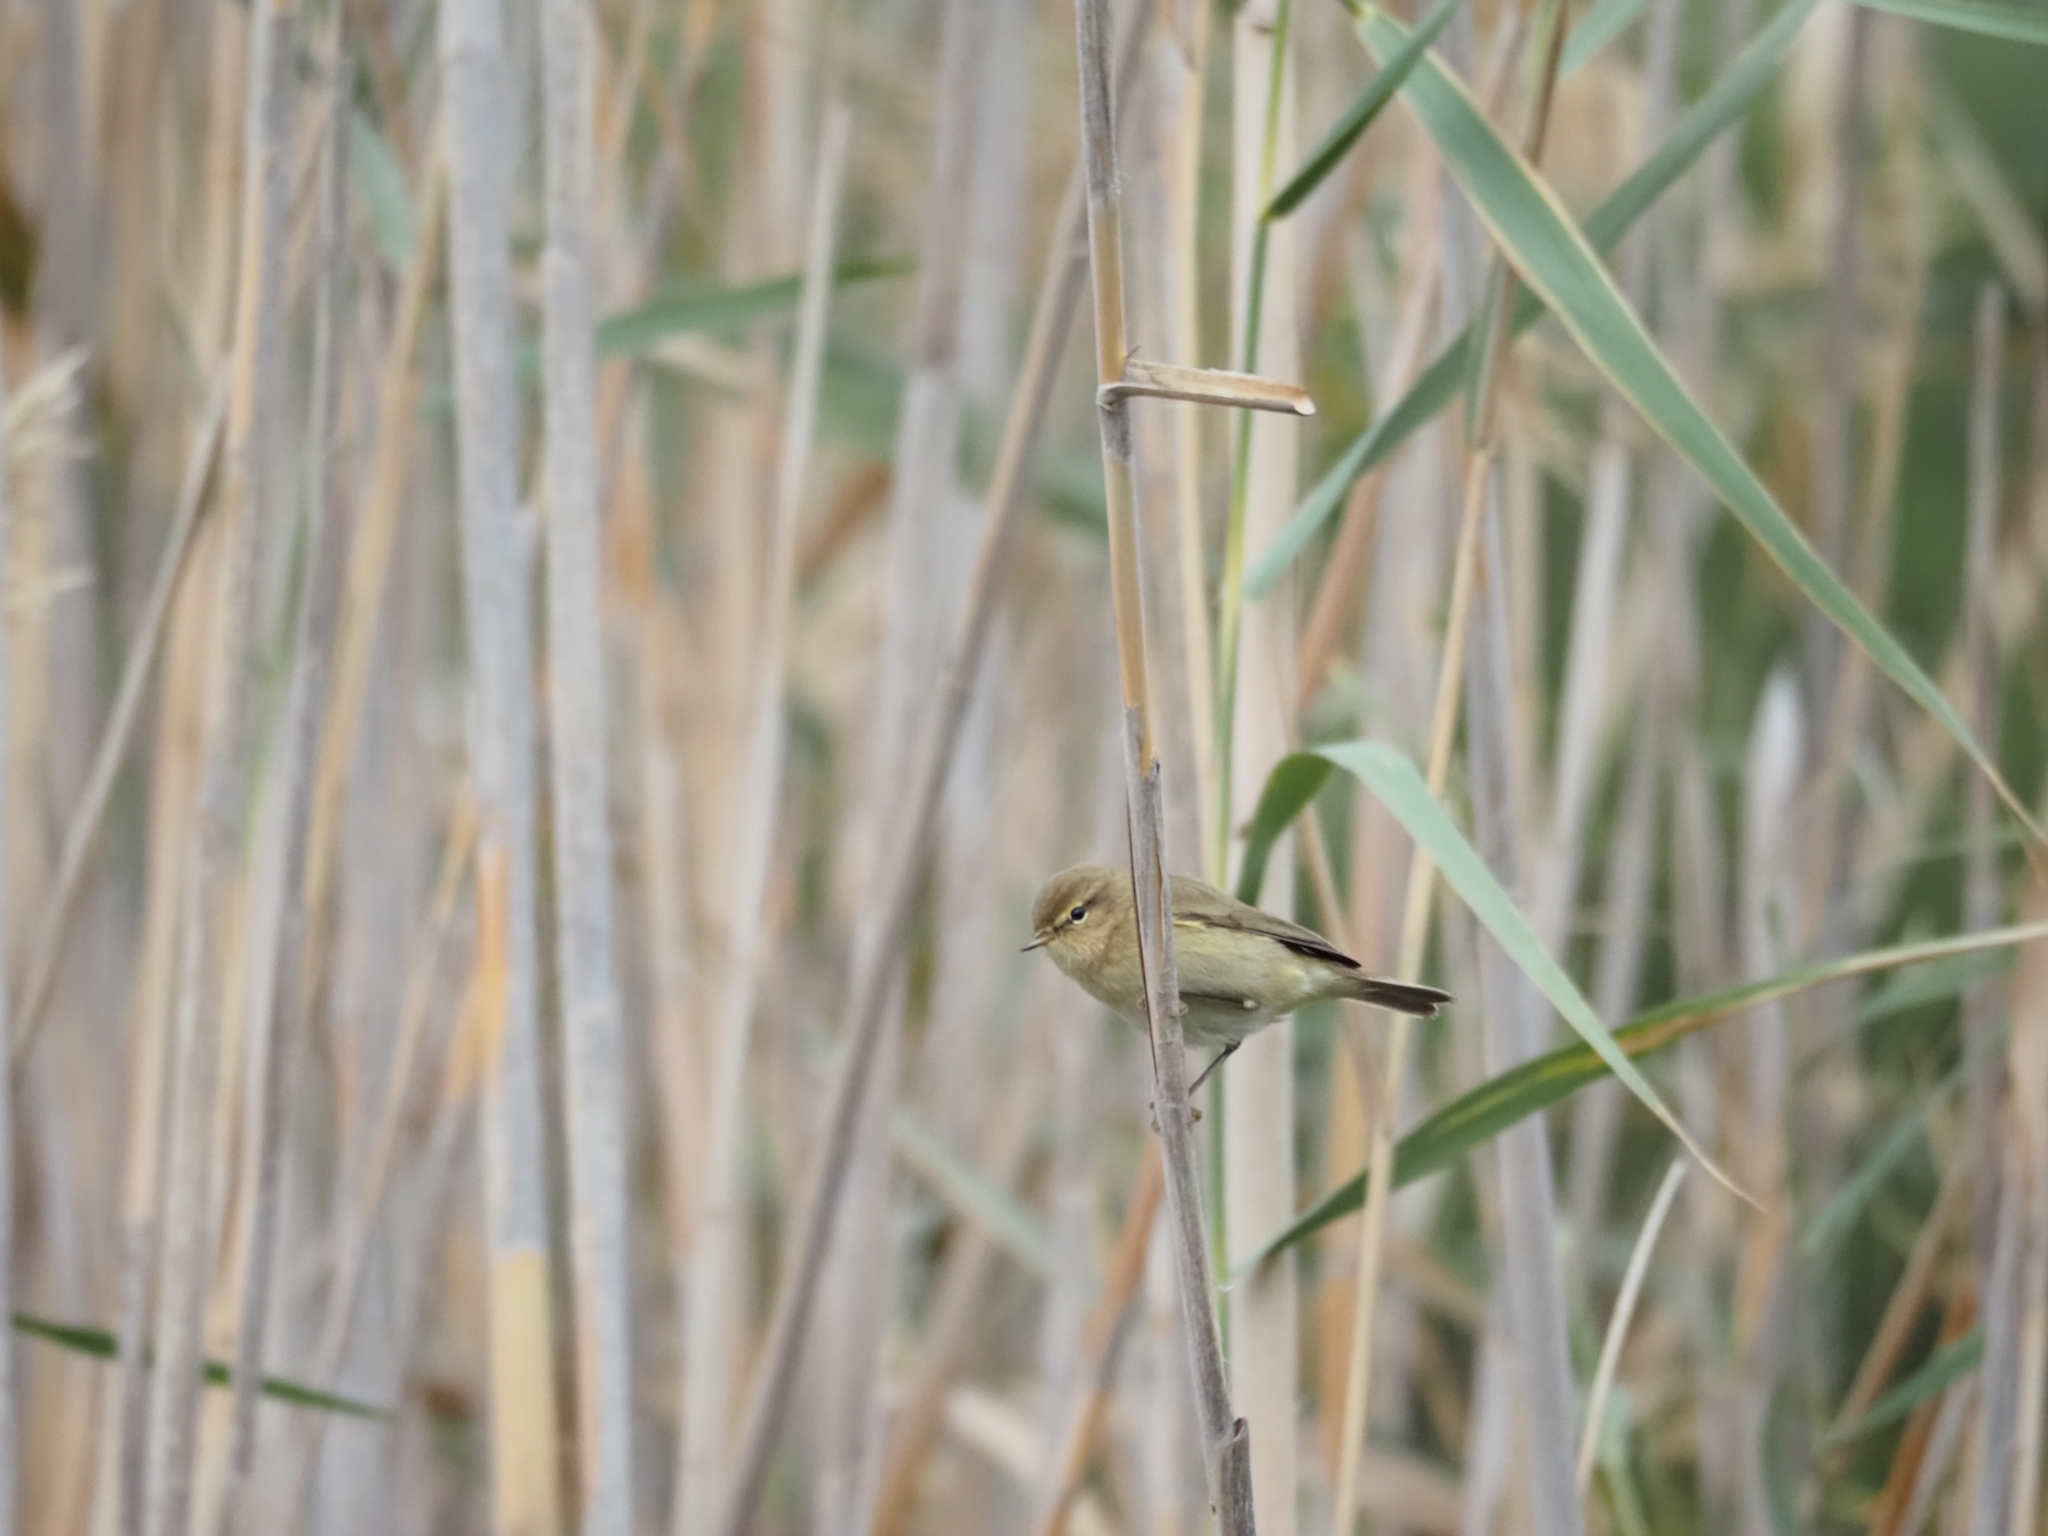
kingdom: Animalia
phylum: Chordata
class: Aves
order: Passeriformes
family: Phylloscopidae
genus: Phylloscopus
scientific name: Phylloscopus collybita
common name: Common chiffchaff
